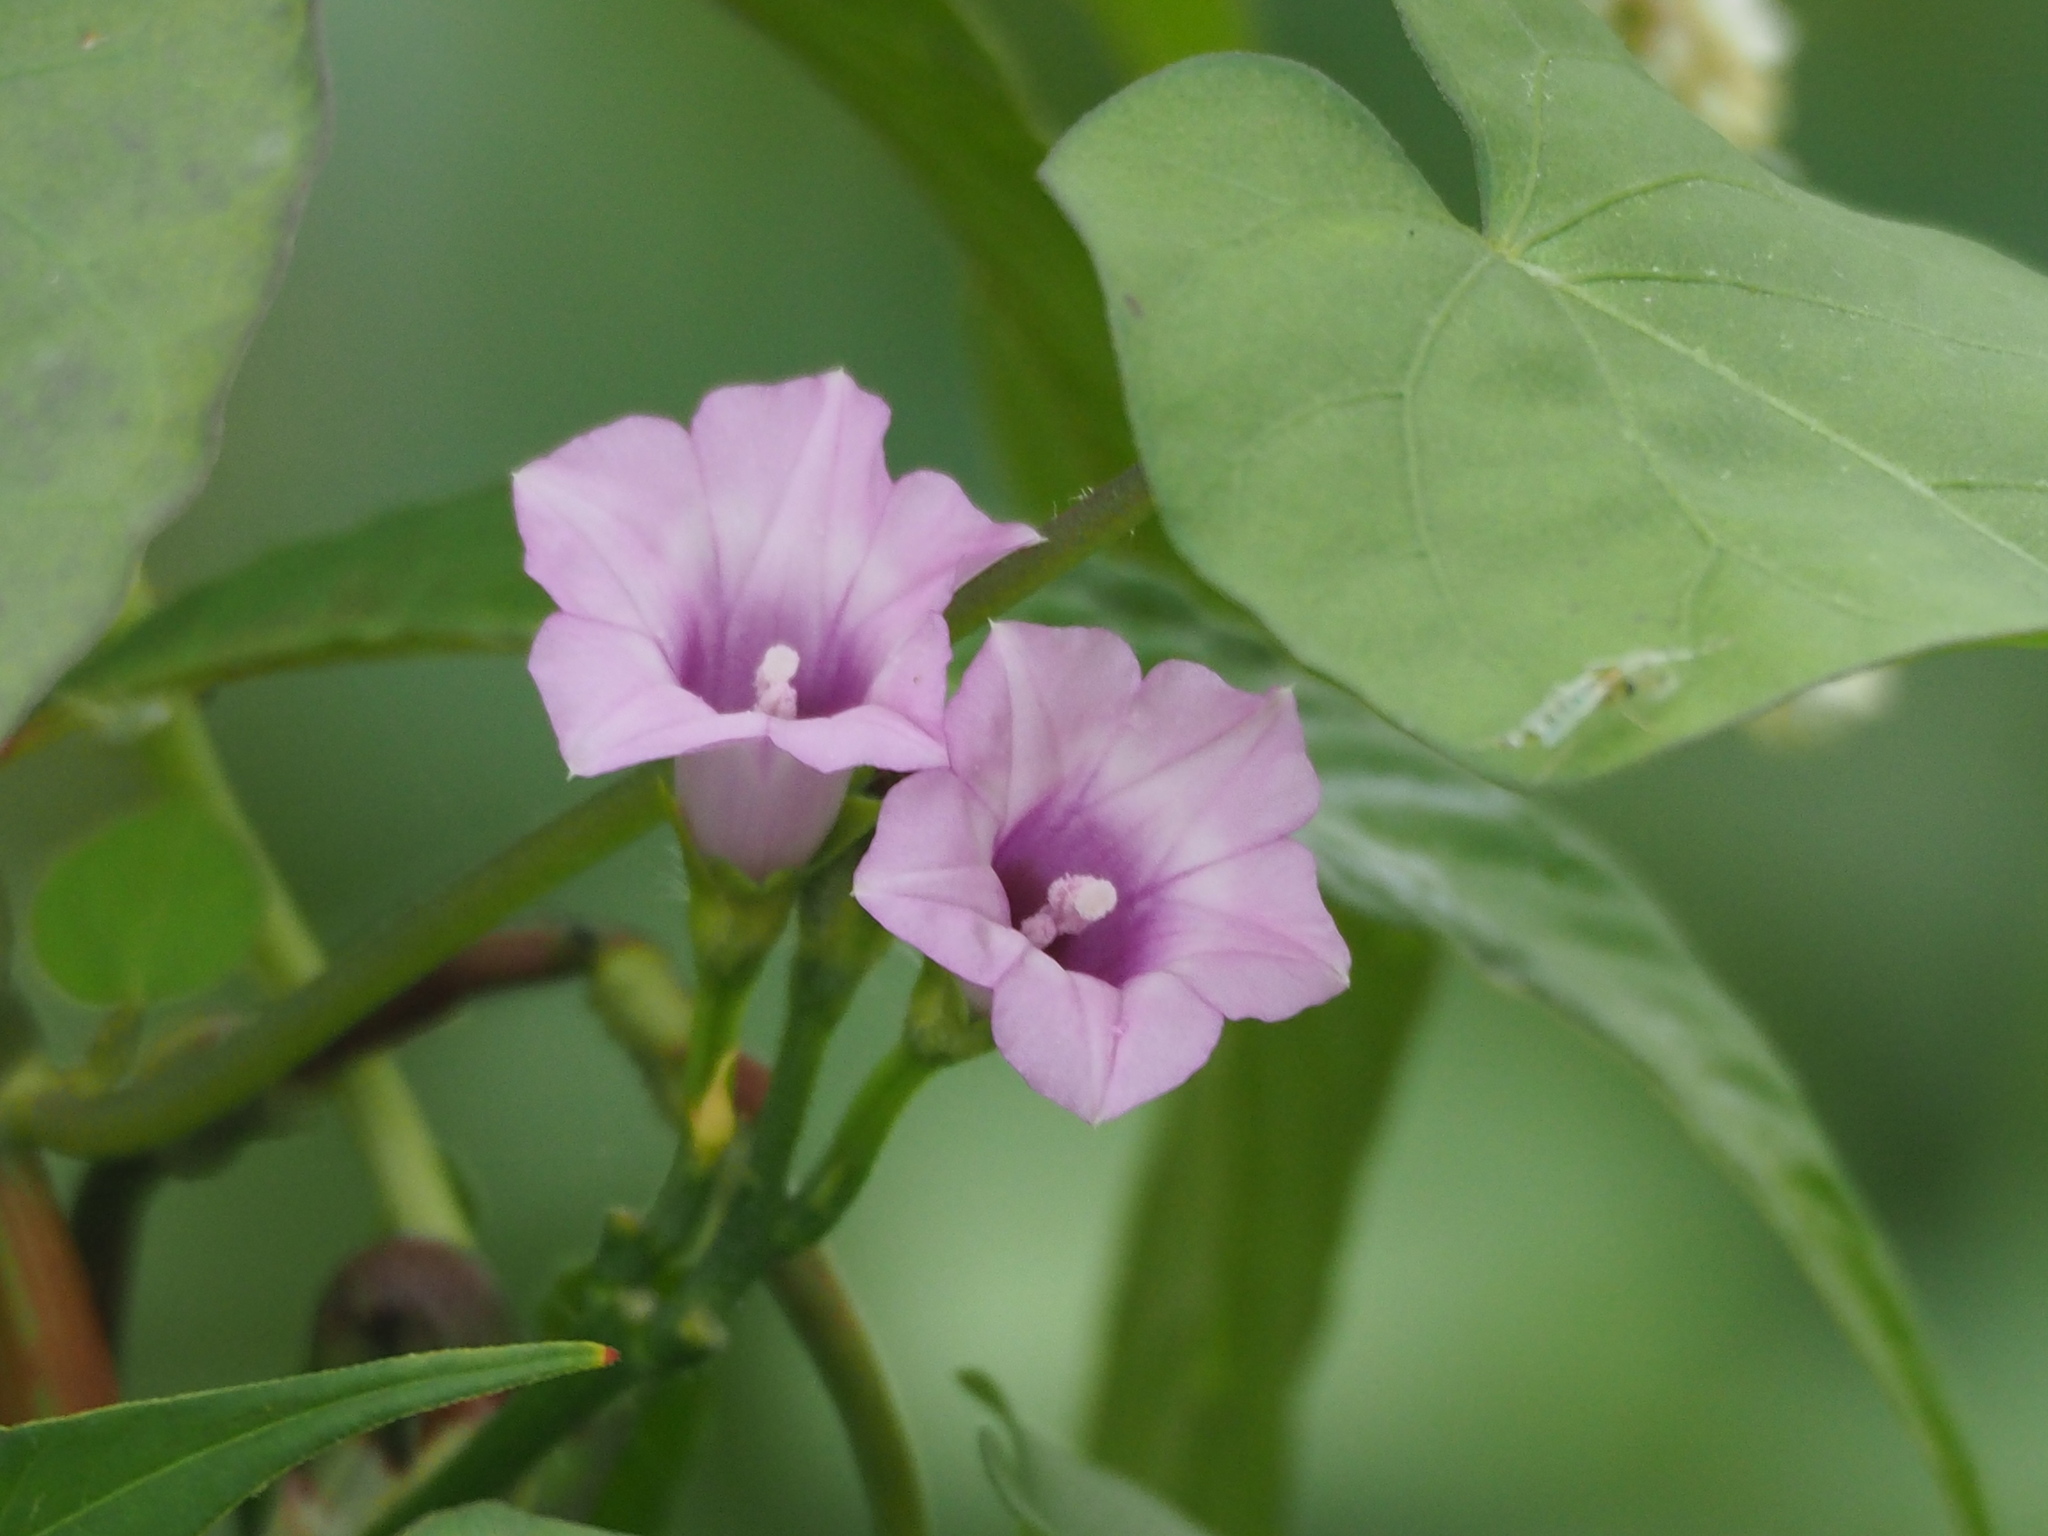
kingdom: Plantae
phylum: Tracheophyta
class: Magnoliopsida
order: Solanales
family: Convolvulaceae
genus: Ipomoea
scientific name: Ipomoea triloba
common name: Little-bell
